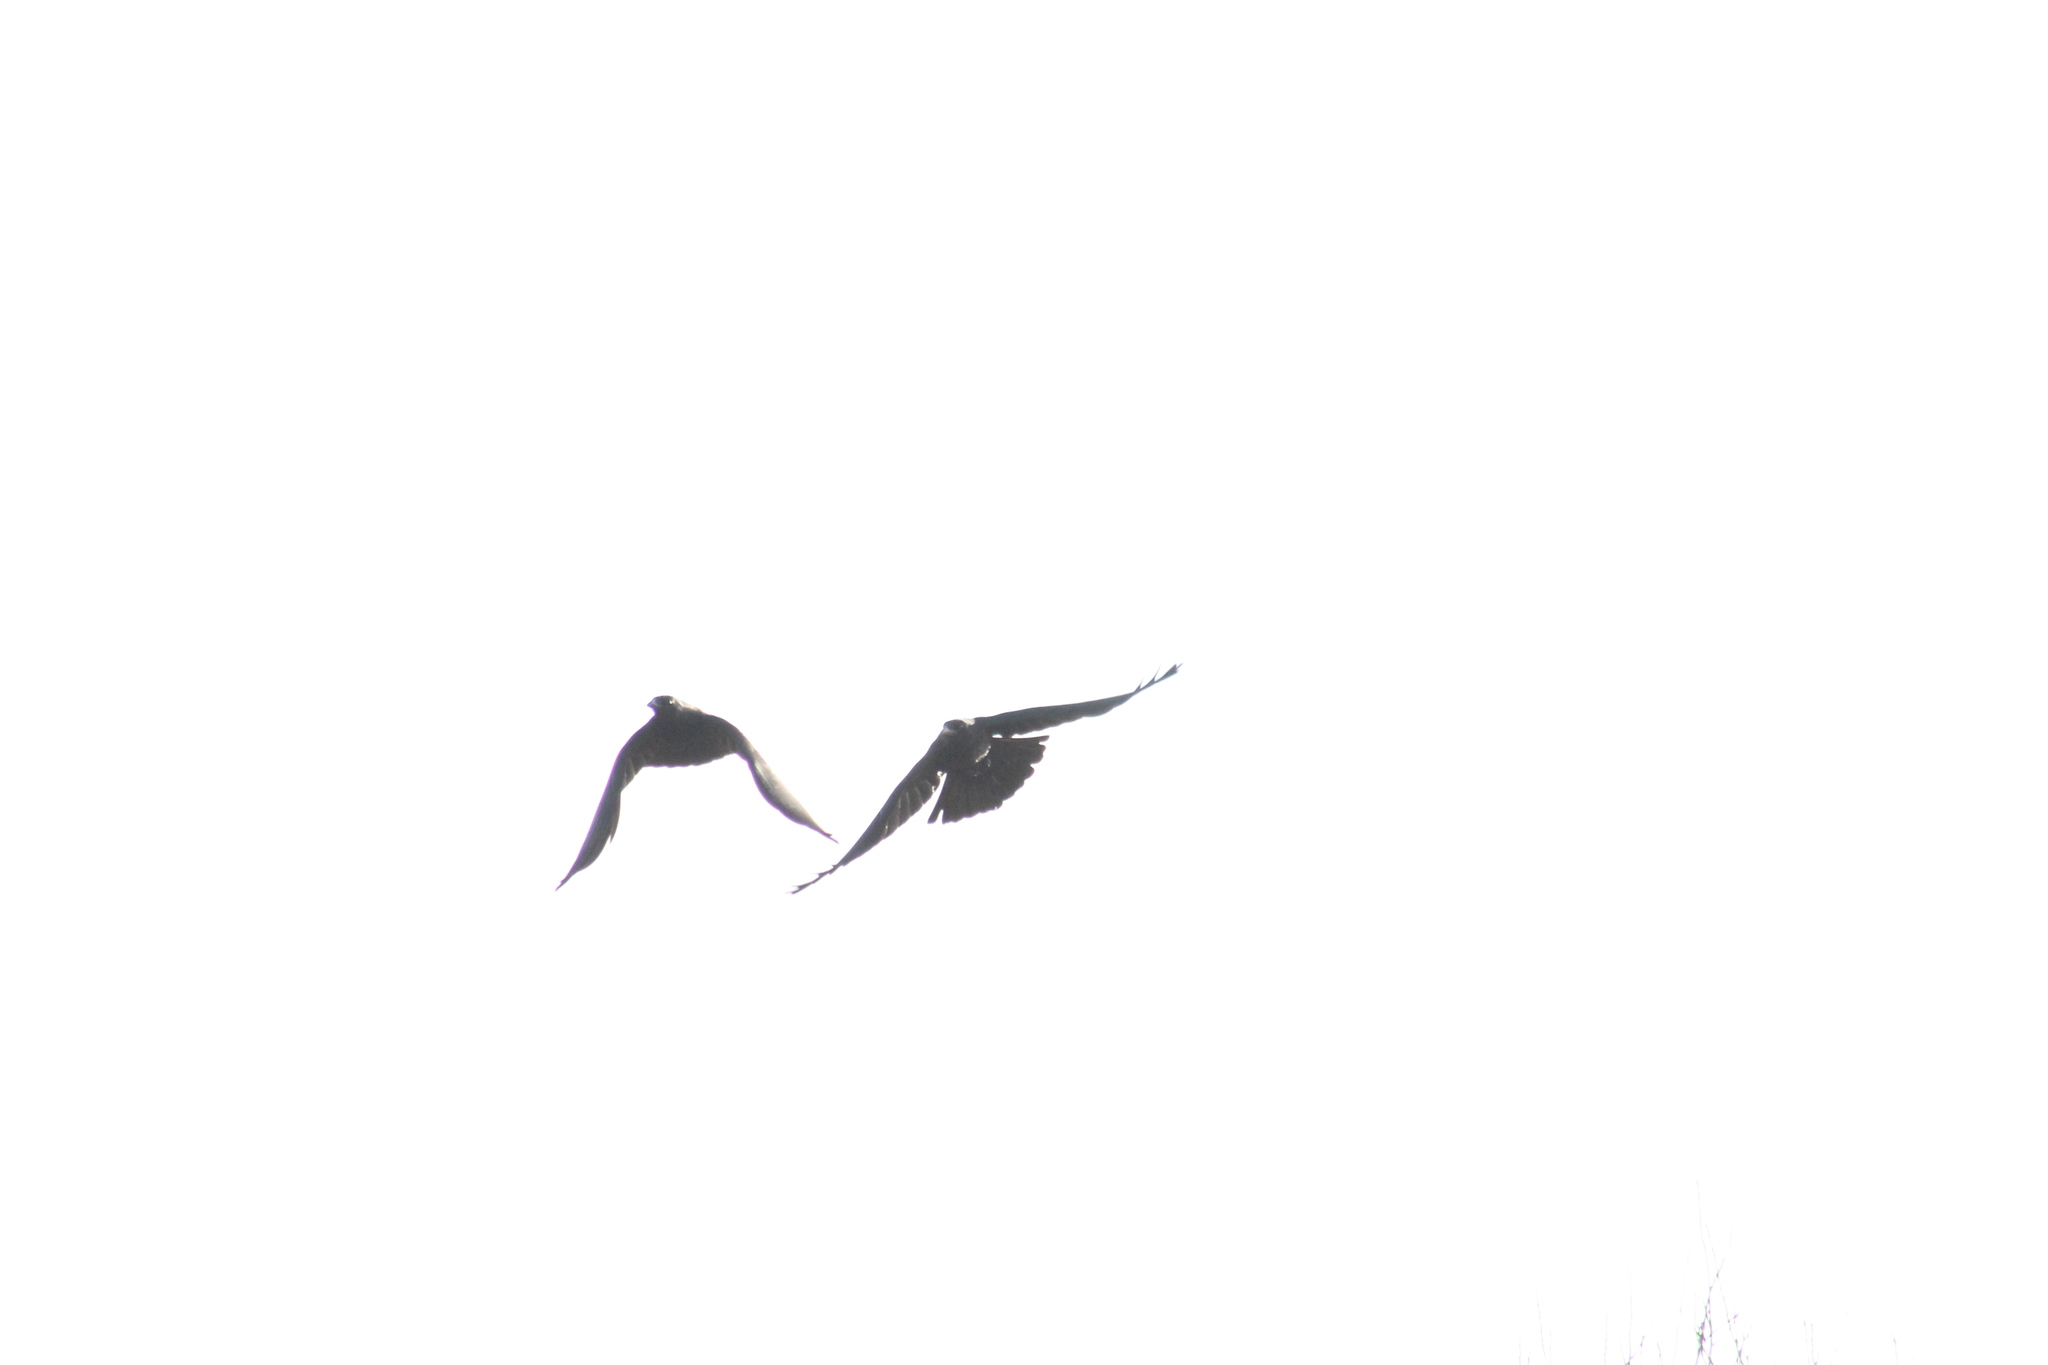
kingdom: Animalia
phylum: Chordata
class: Aves
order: Passeriformes
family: Corvidae
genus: Corvus
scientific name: Corvus corone
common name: Carrion crow
